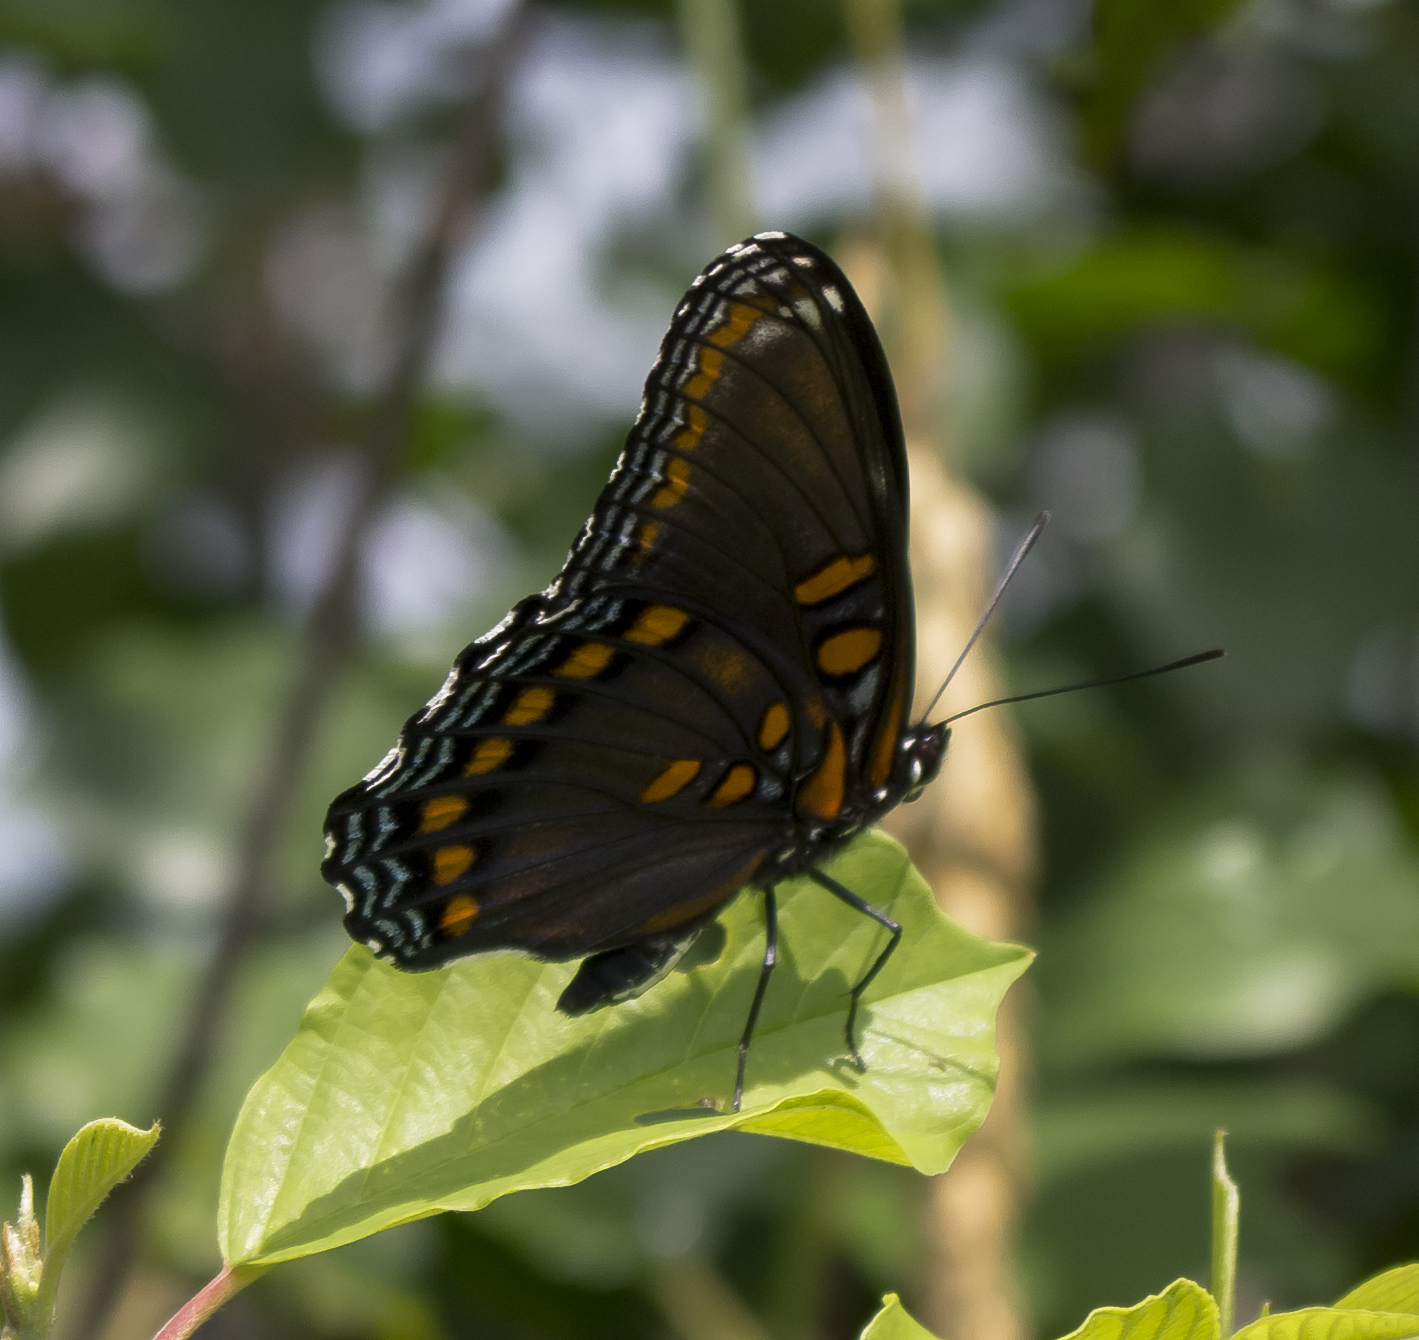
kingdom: Animalia
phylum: Arthropoda
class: Insecta
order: Lepidoptera
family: Nymphalidae
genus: Limenitis
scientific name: Limenitis astyanax
